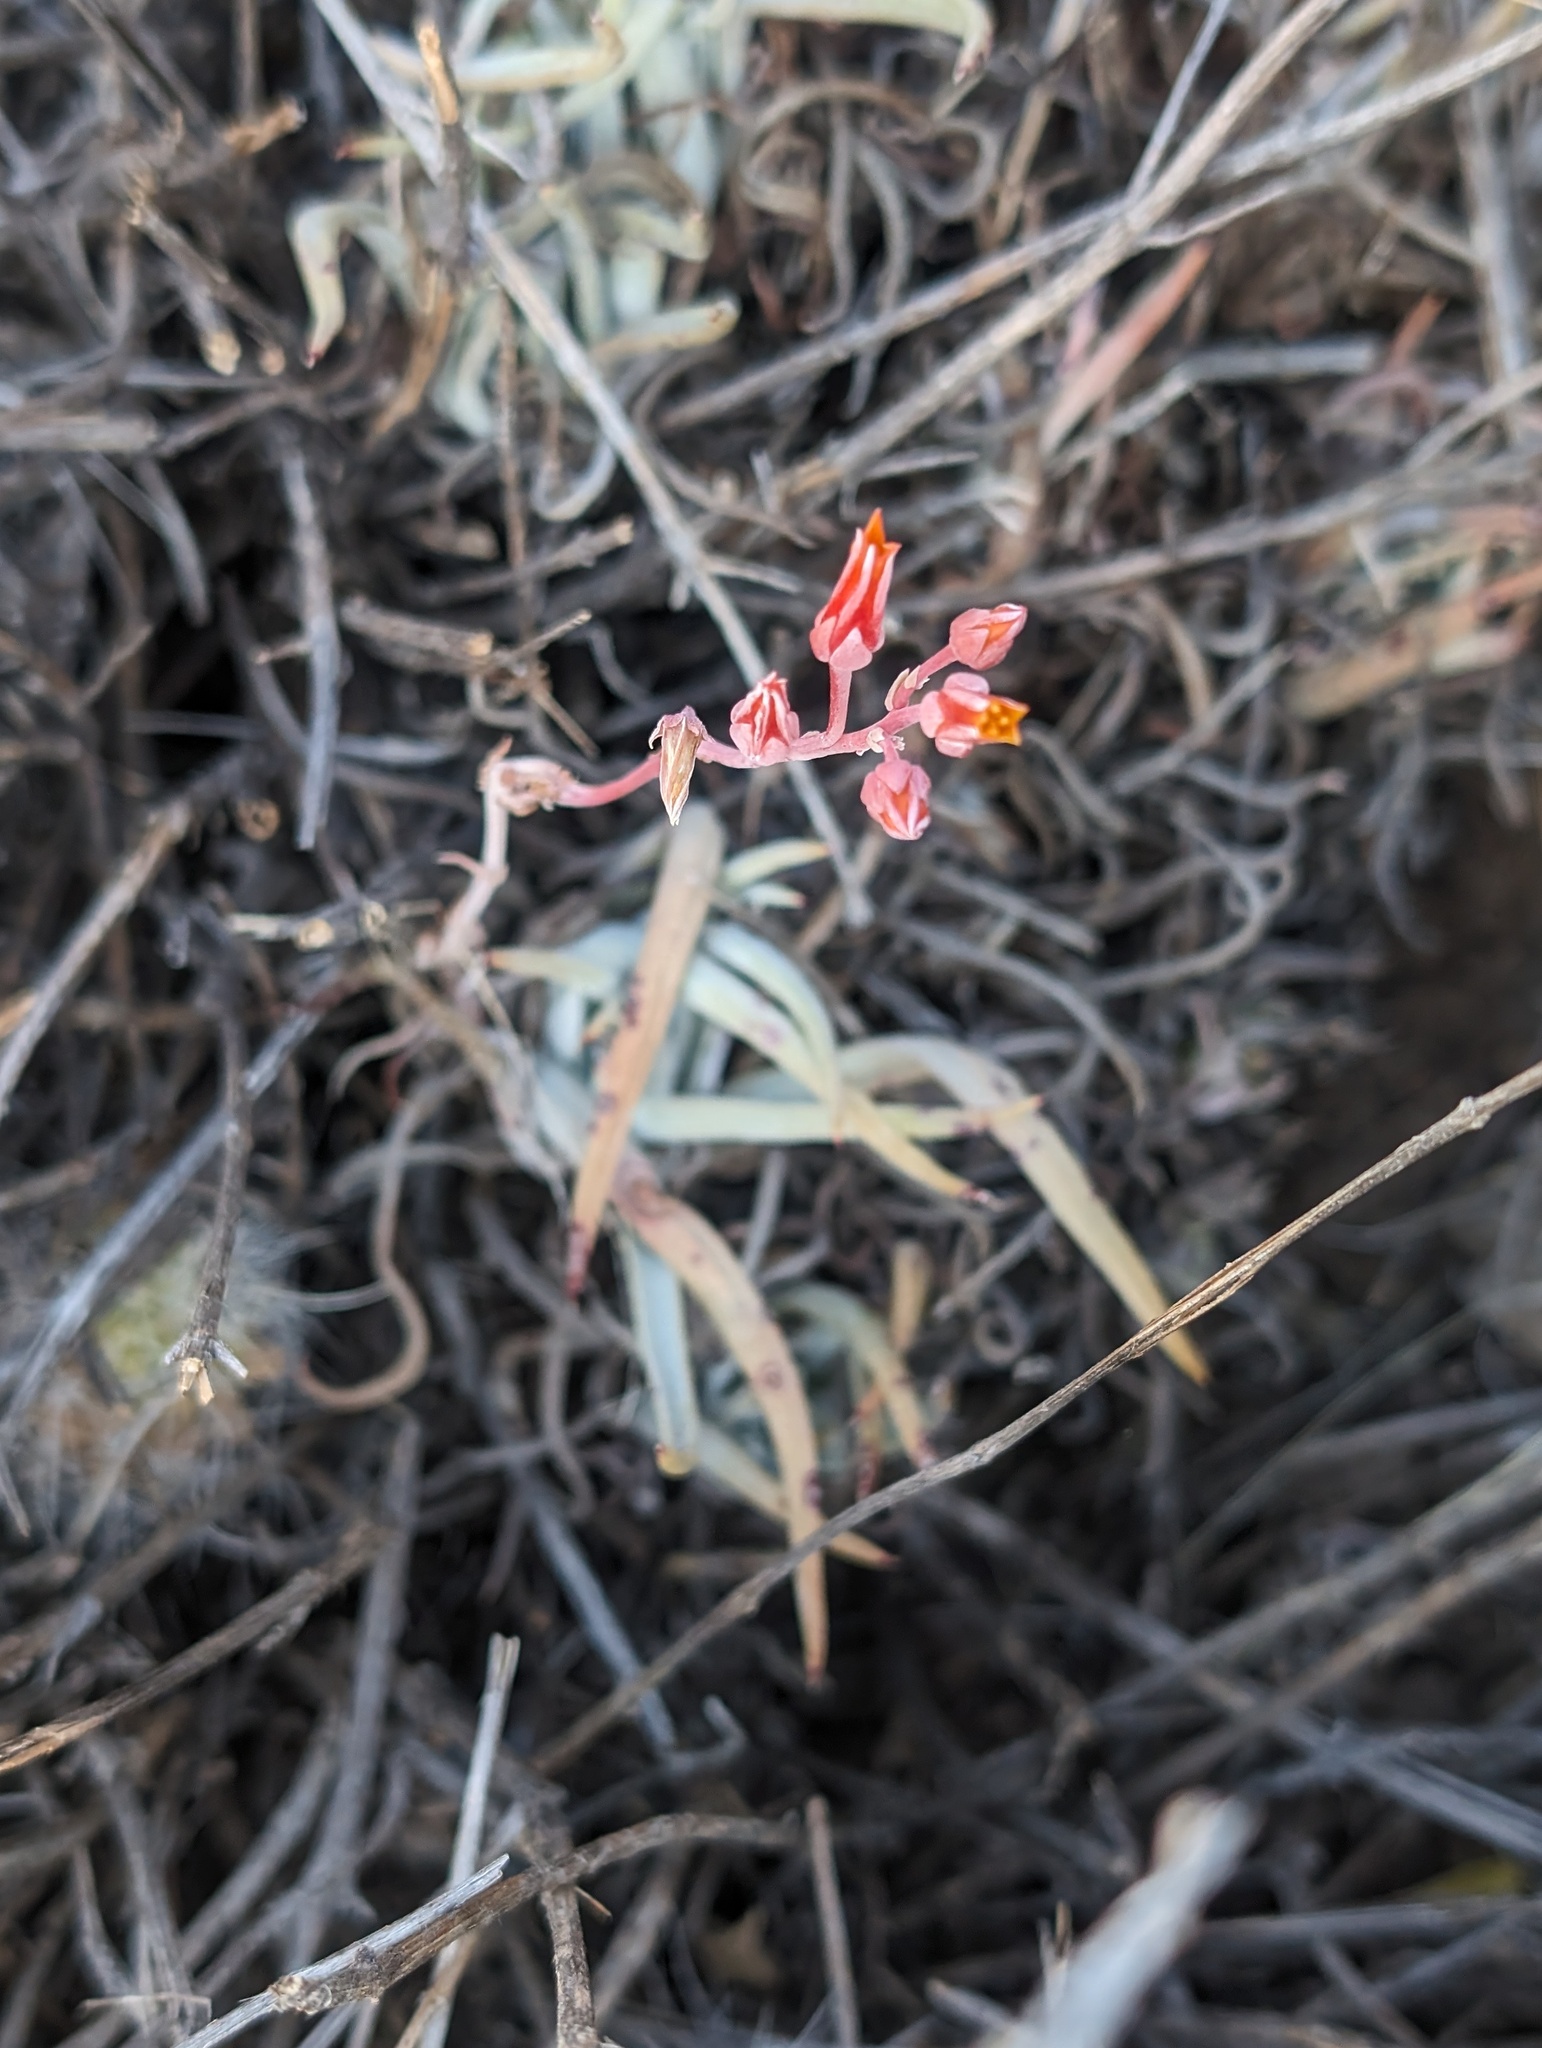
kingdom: Plantae
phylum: Tracheophyta
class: Magnoliopsida
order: Saxifragales
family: Crassulaceae
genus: Dudleya
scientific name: Dudleya pauciflora
